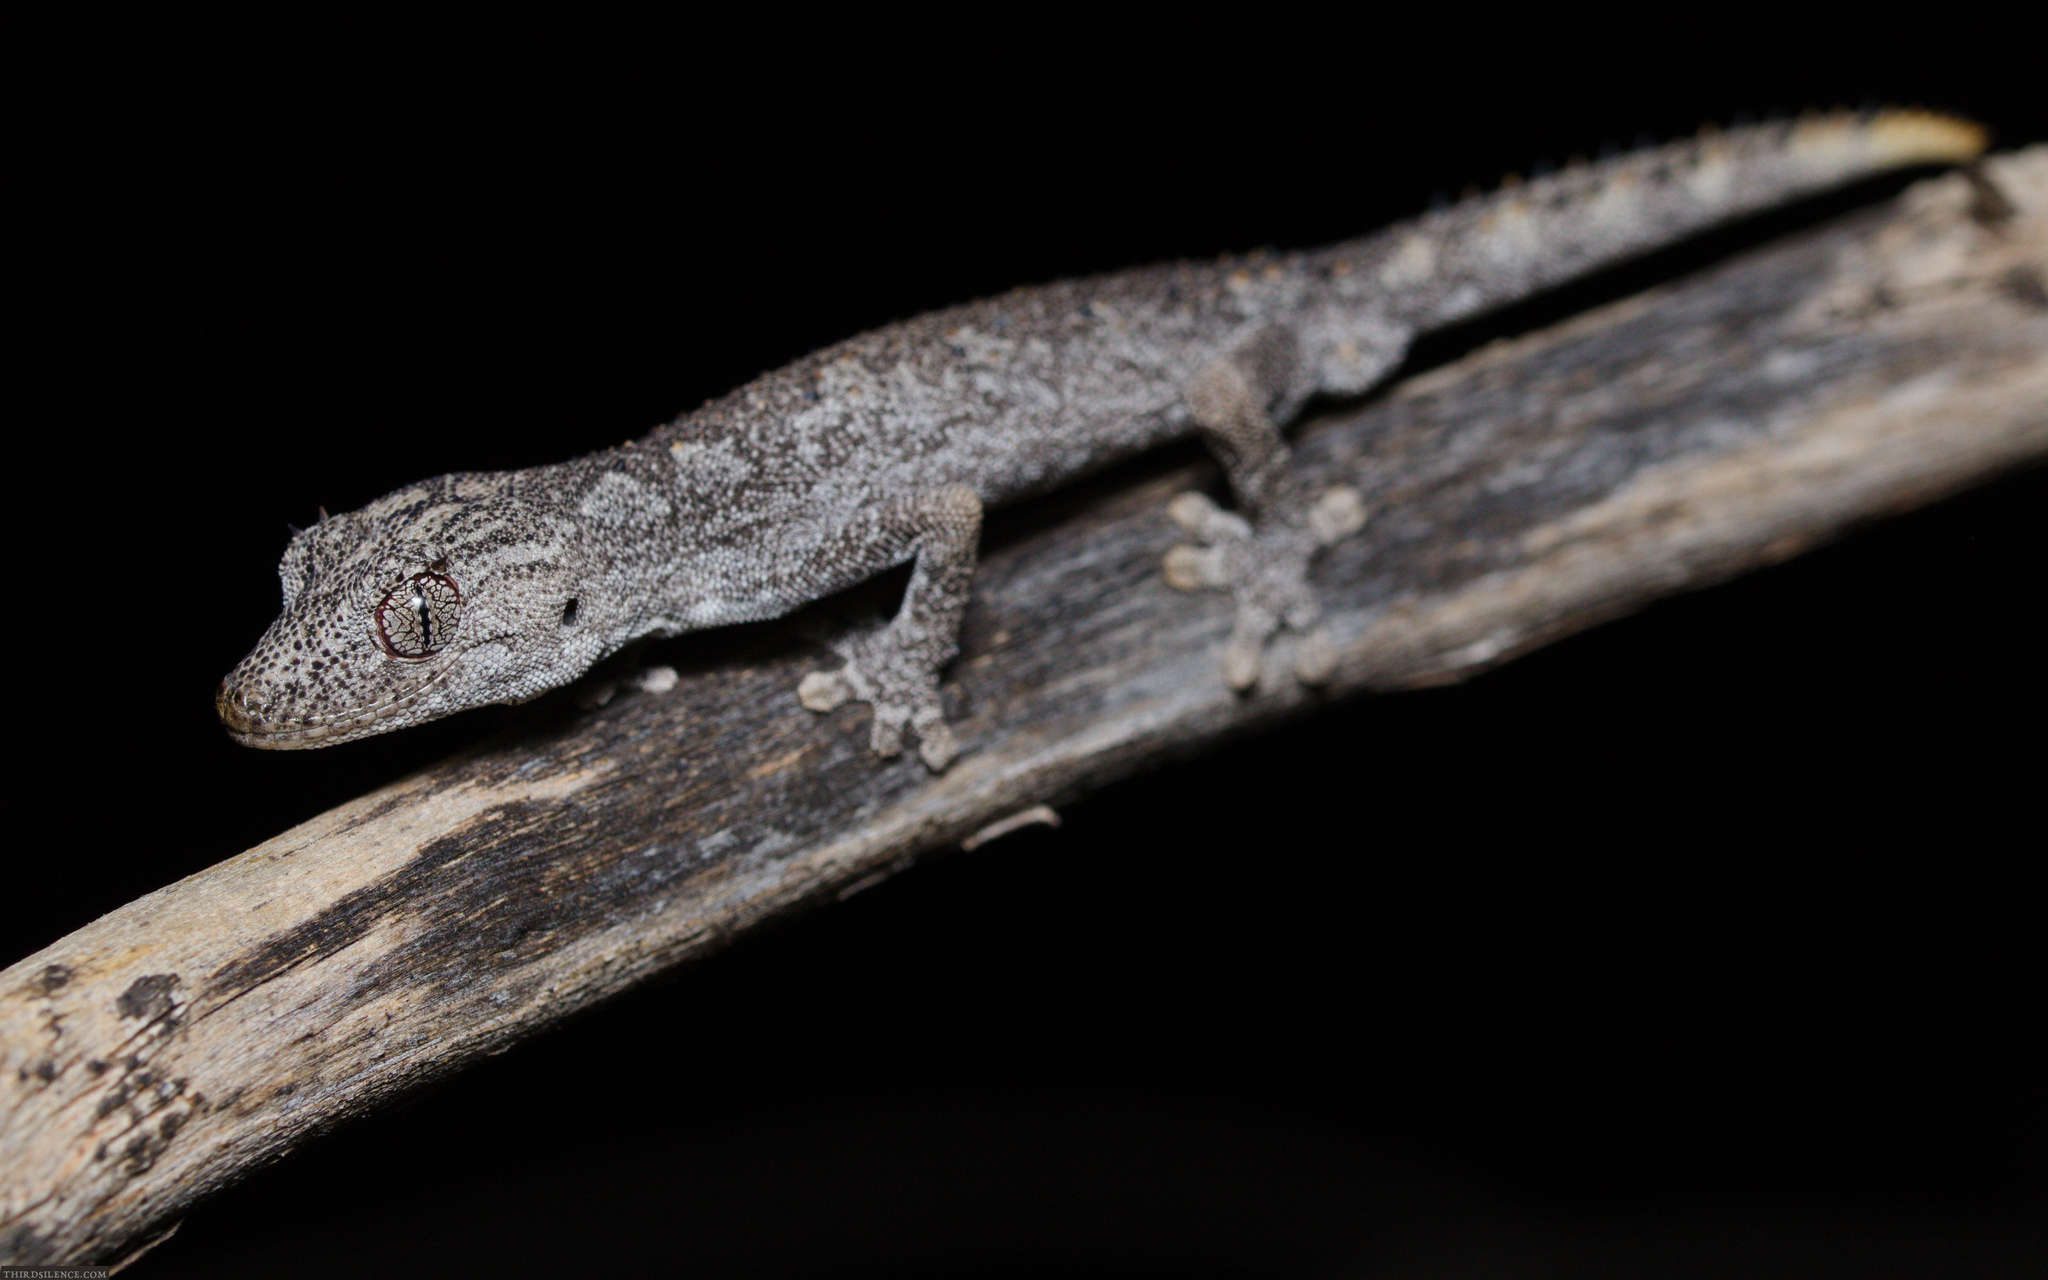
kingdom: Animalia
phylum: Chordata
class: Squamata
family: Diplodactylidae
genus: Strophurus
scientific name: Strophurus ciliaris
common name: Northern spiny-tailed gecko
